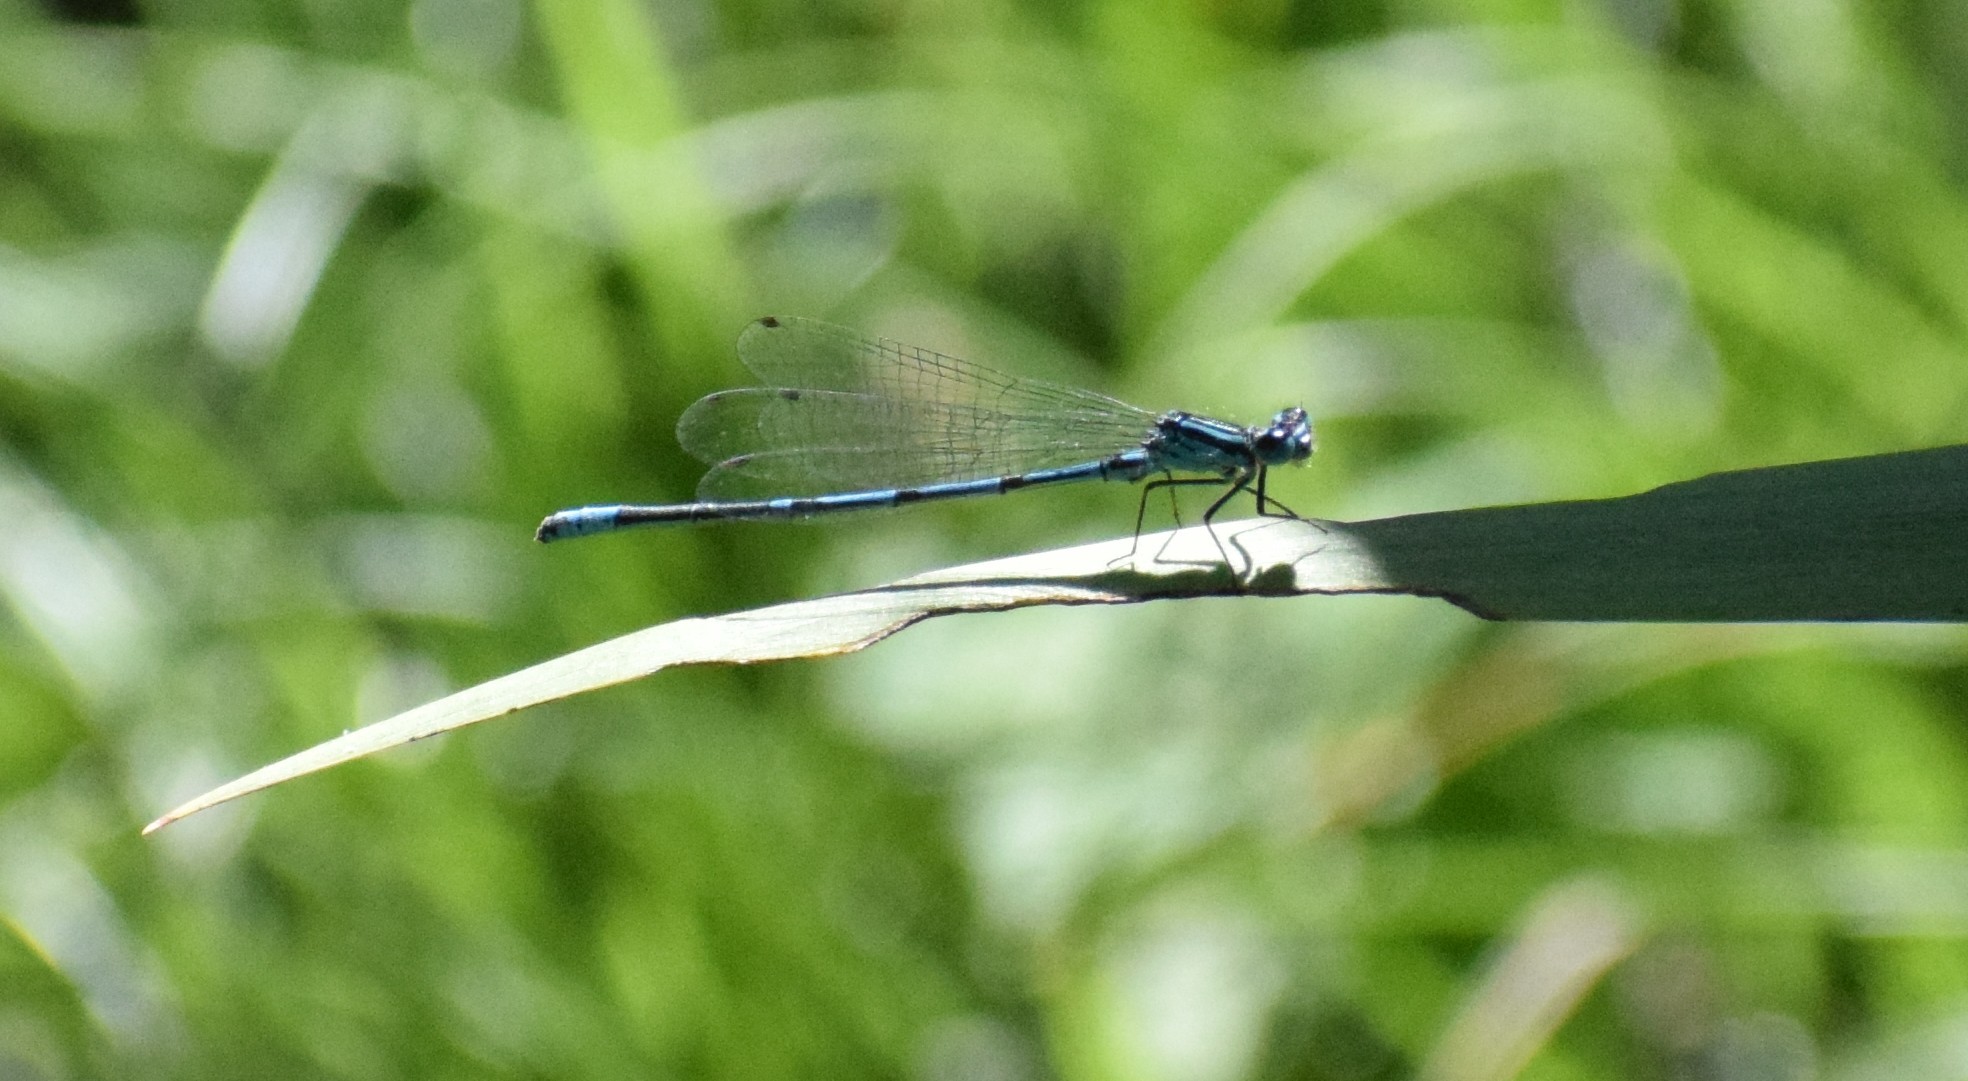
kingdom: Animalia
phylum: Arthropoda
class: Insecta
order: Odonata
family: Coenagrionidae
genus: Coenagrion
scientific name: Coenagrion puella
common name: Azure damselfly
